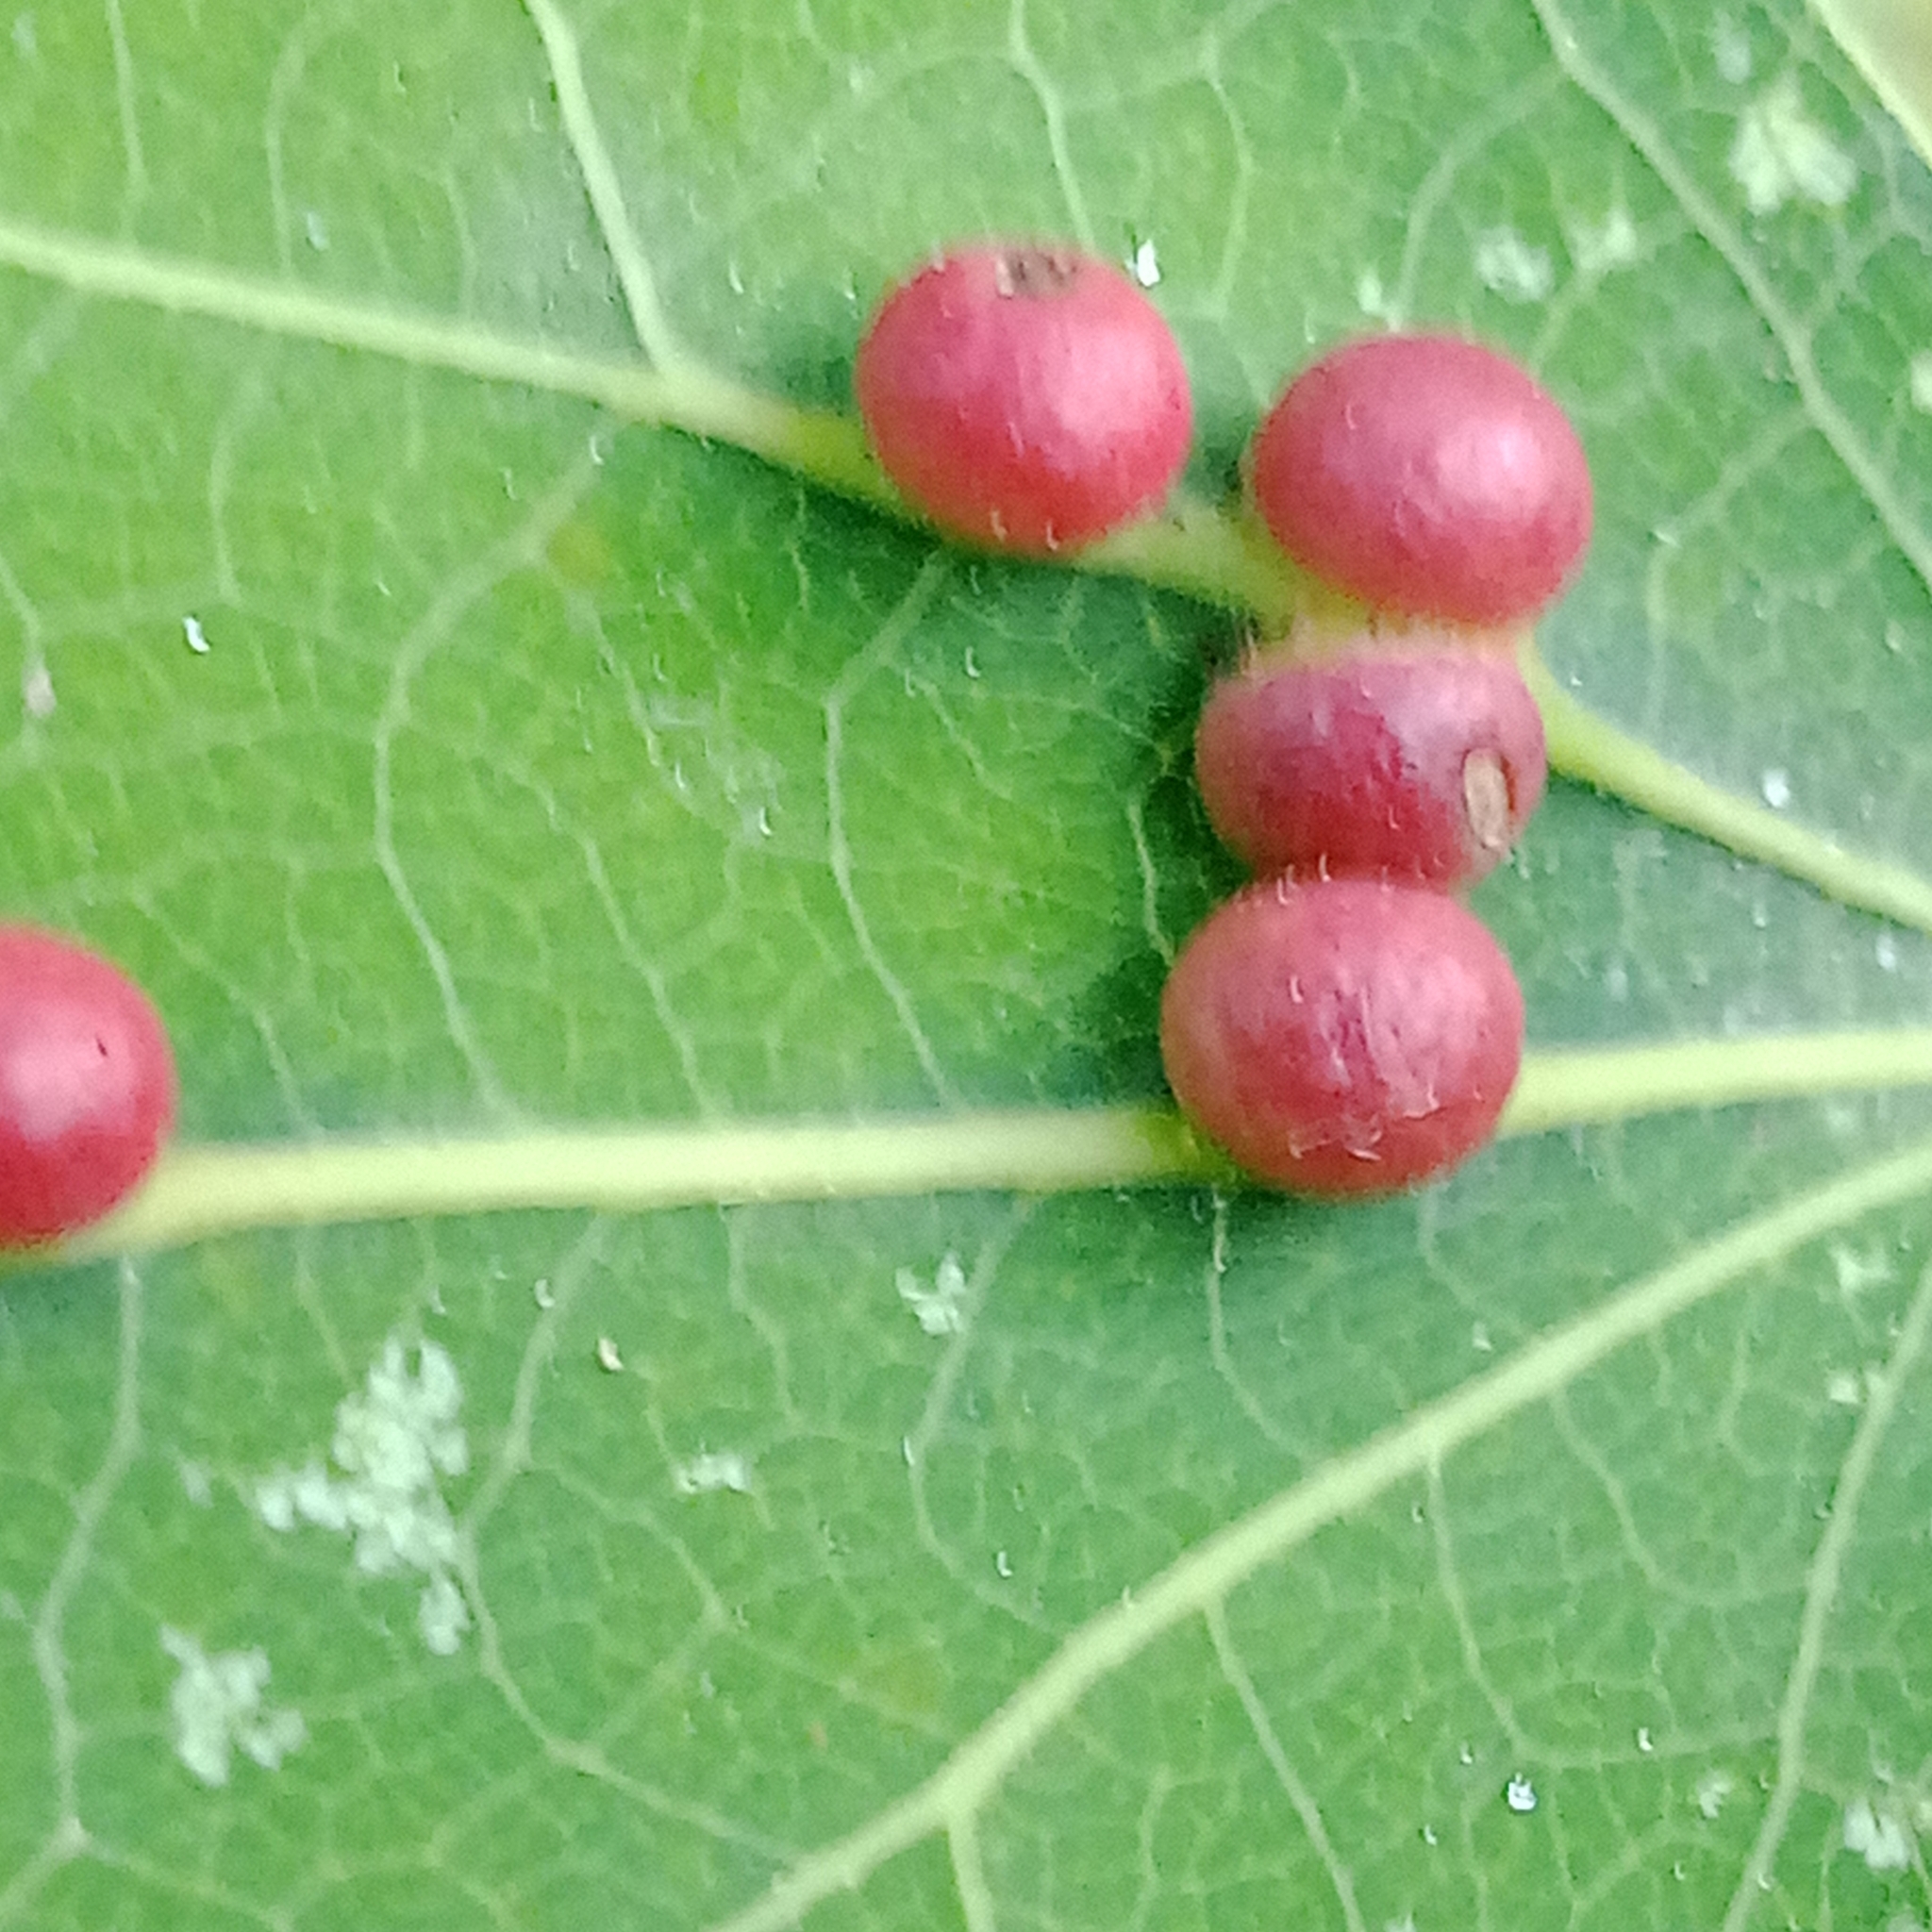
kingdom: Animalia
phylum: Arthropoda
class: Insecta
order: Diptera
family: Cecidomyiidae
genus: Harmandiola
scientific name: Harmandiola tremulae
